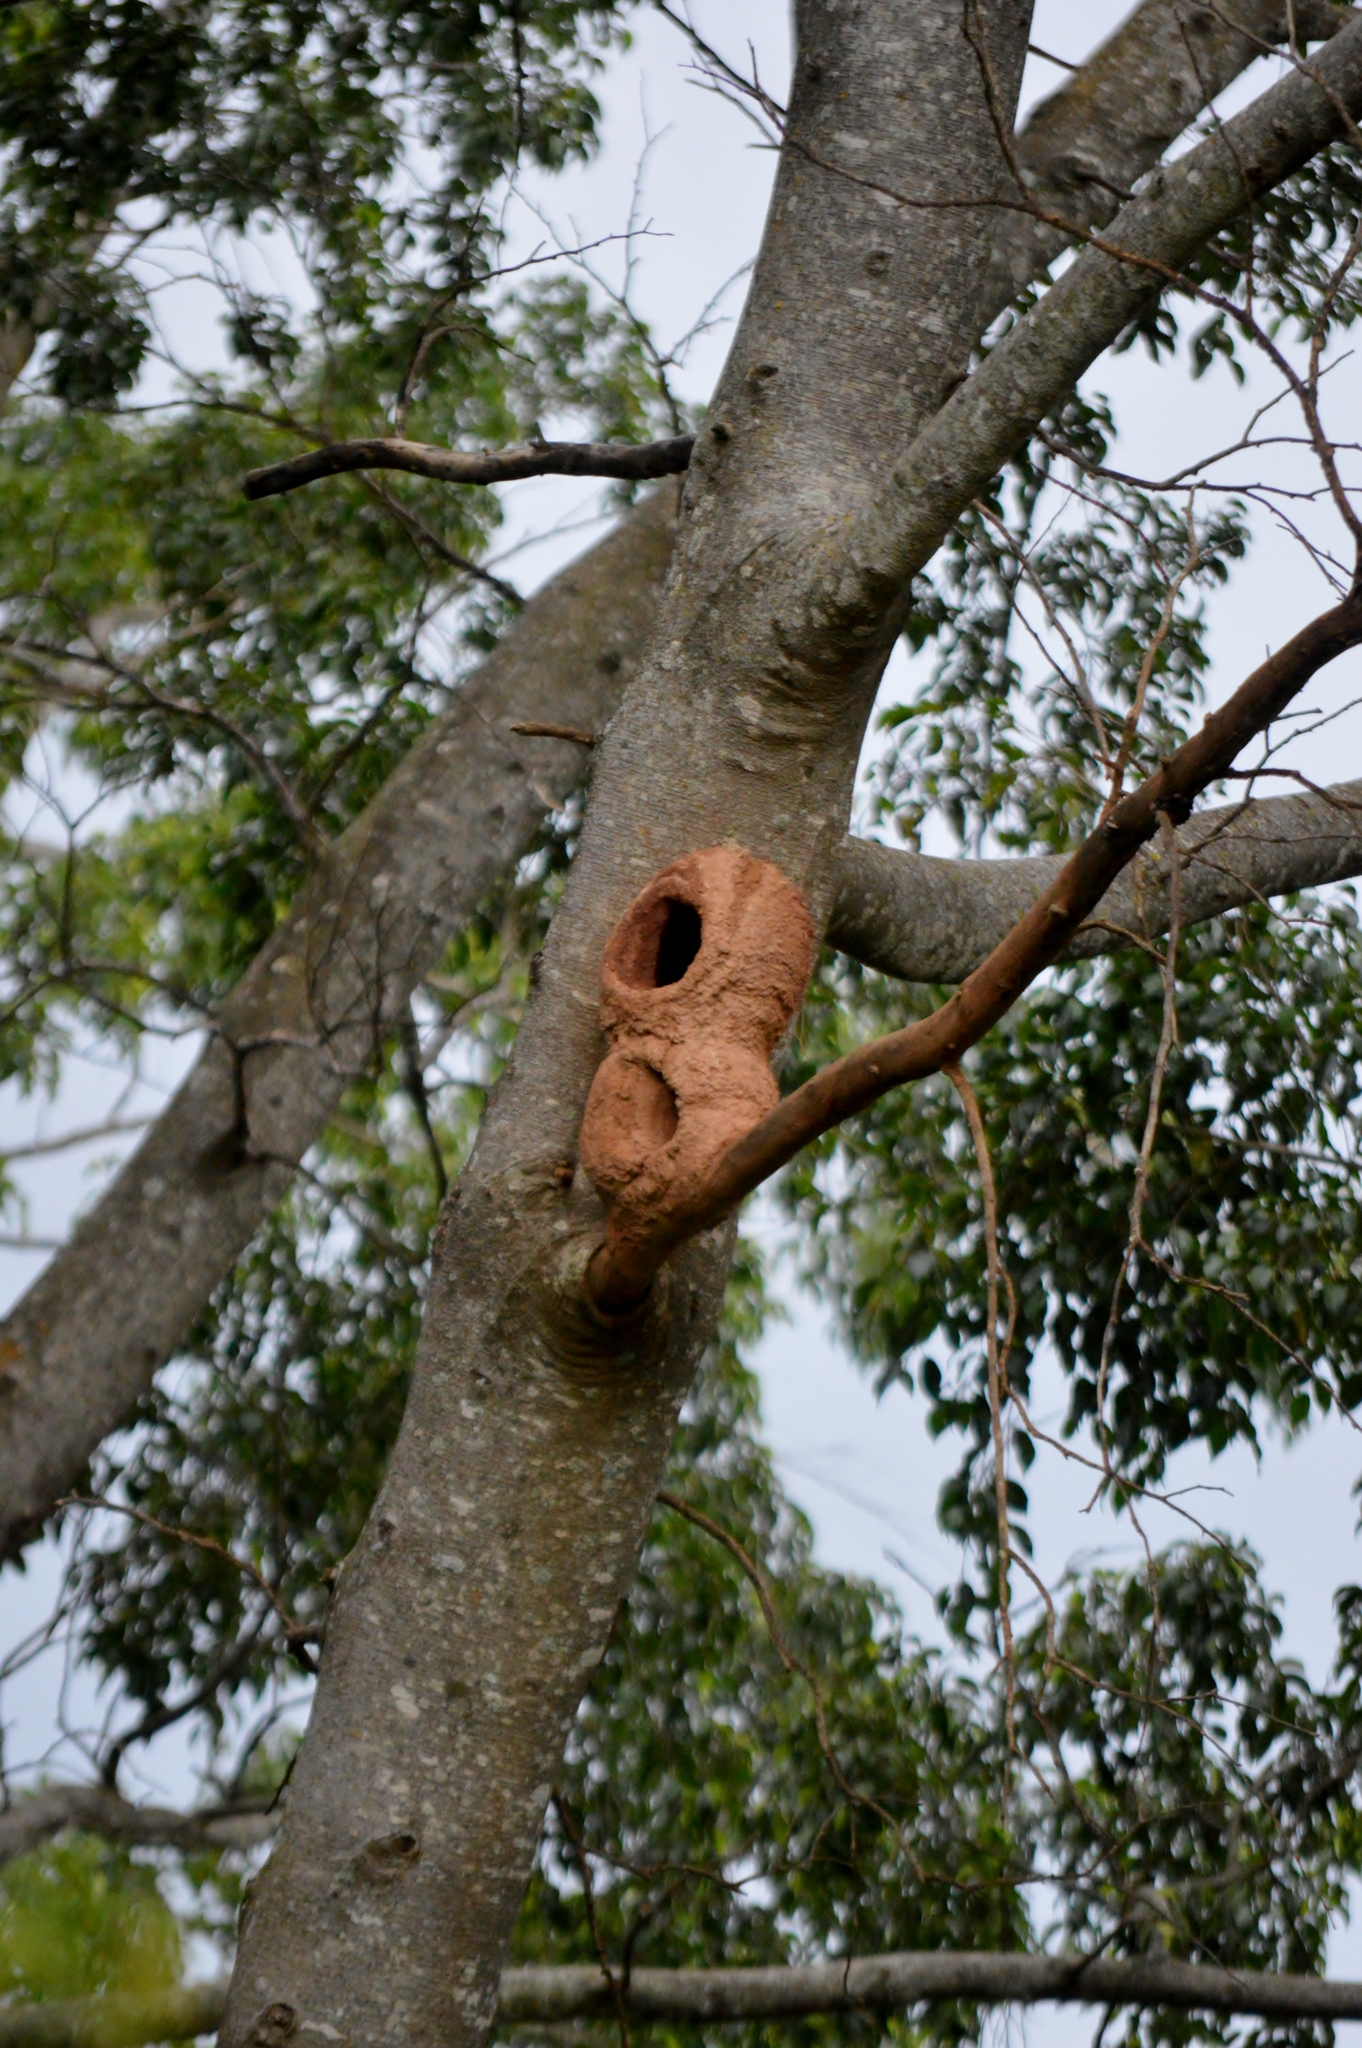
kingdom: Animalia
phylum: Chordata
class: Aves
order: Passeriformes
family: Furnariidae
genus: Furnarius
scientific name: Furnarius rufus
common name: Rufous hornero
